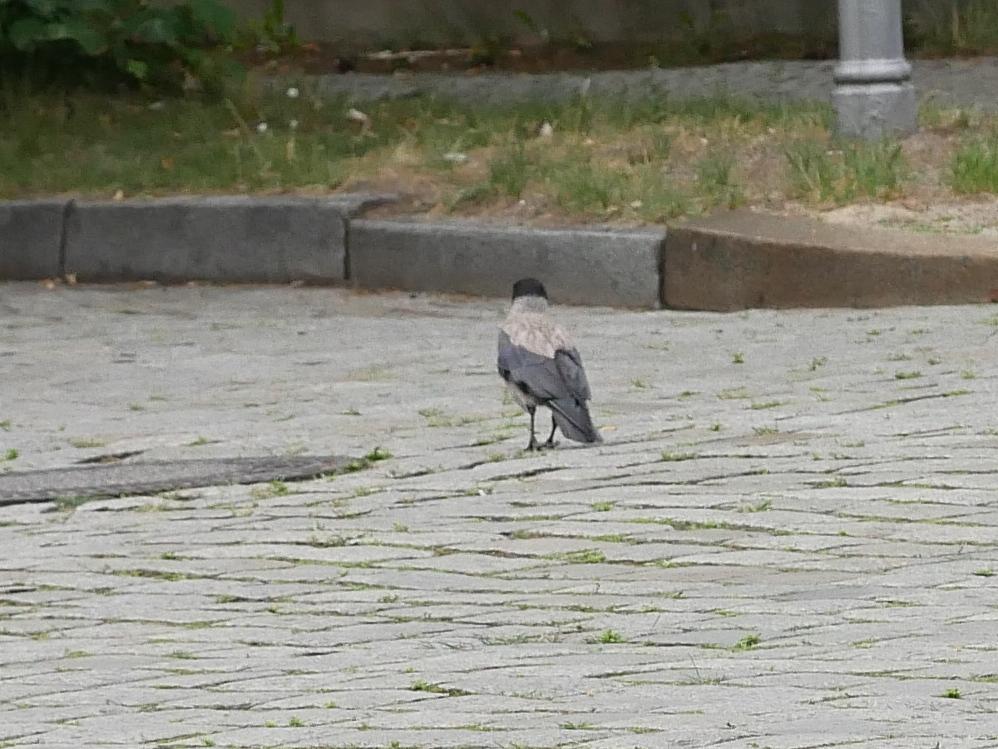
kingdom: Animalia
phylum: Chordata
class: Aves
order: Passeriformes
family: Corvidae
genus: Corvus
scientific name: Corvus cornix
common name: Hooded crow
